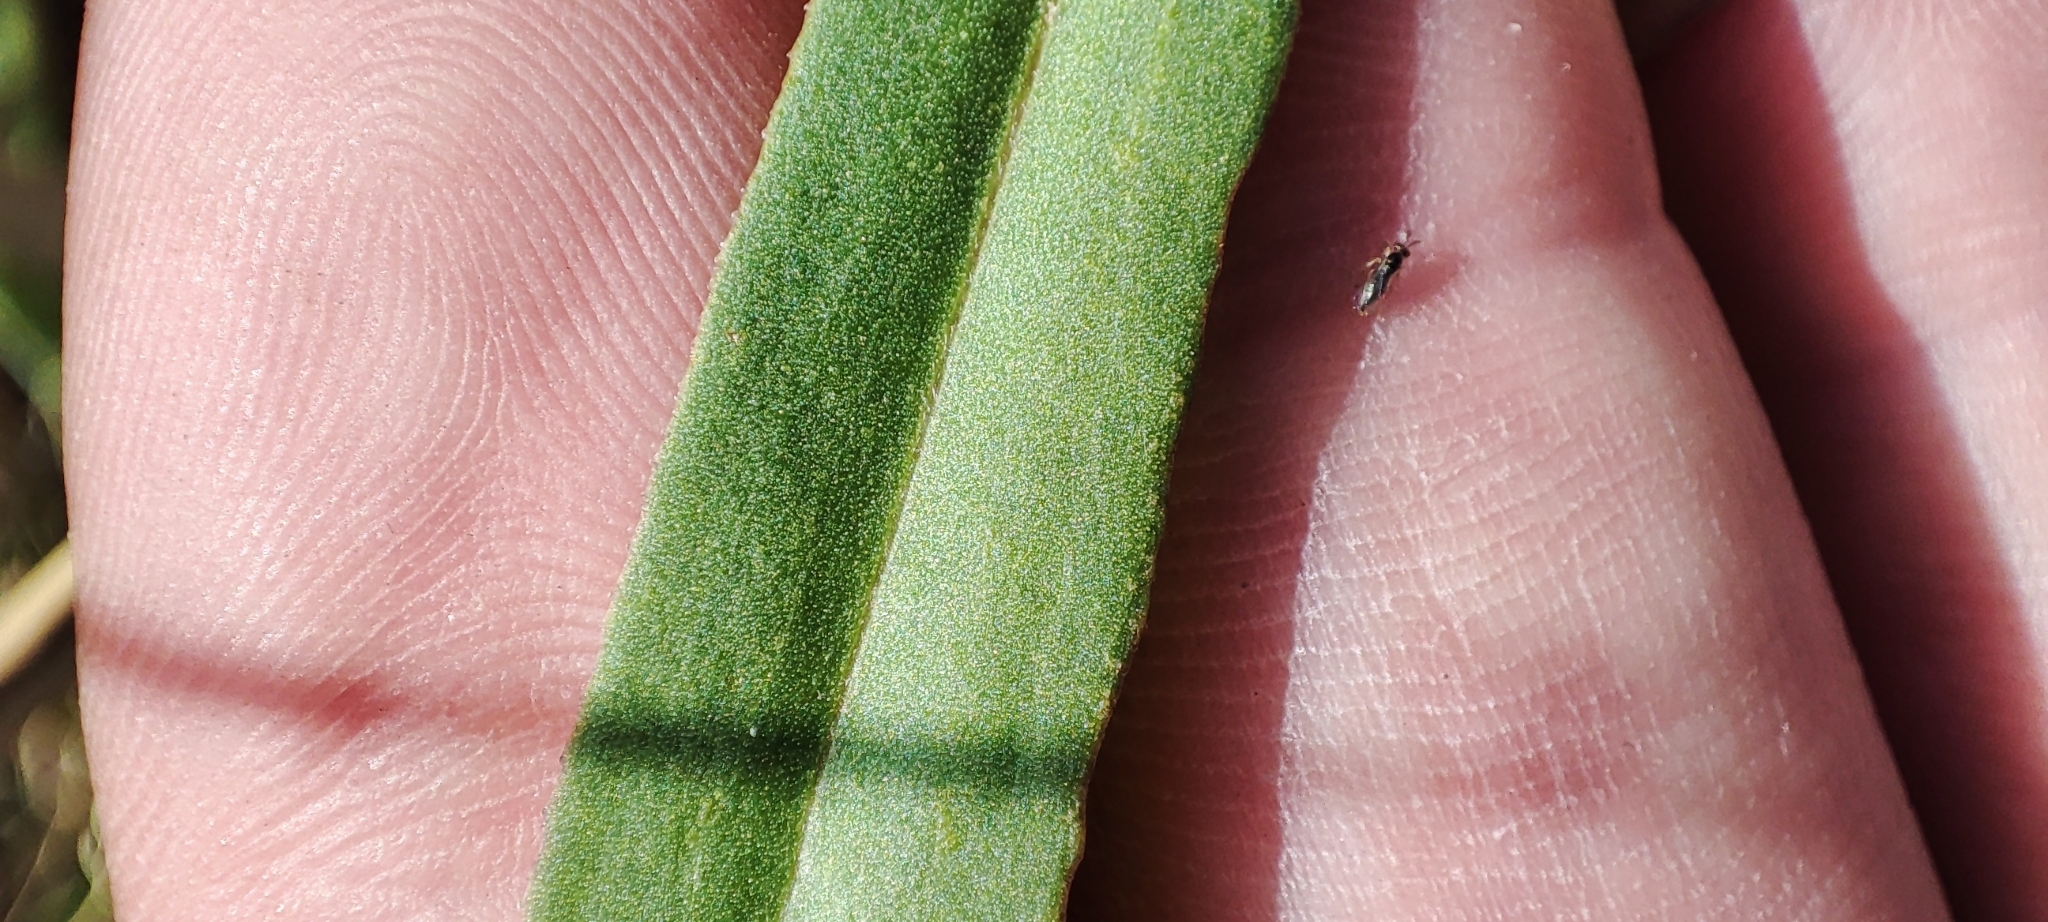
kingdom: Plantae
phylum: Tracheophyta
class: Magnoliopsida
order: Asterales
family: Asteraceae
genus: Tripolium
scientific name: Tripolium pannonicum
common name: Sea aster
